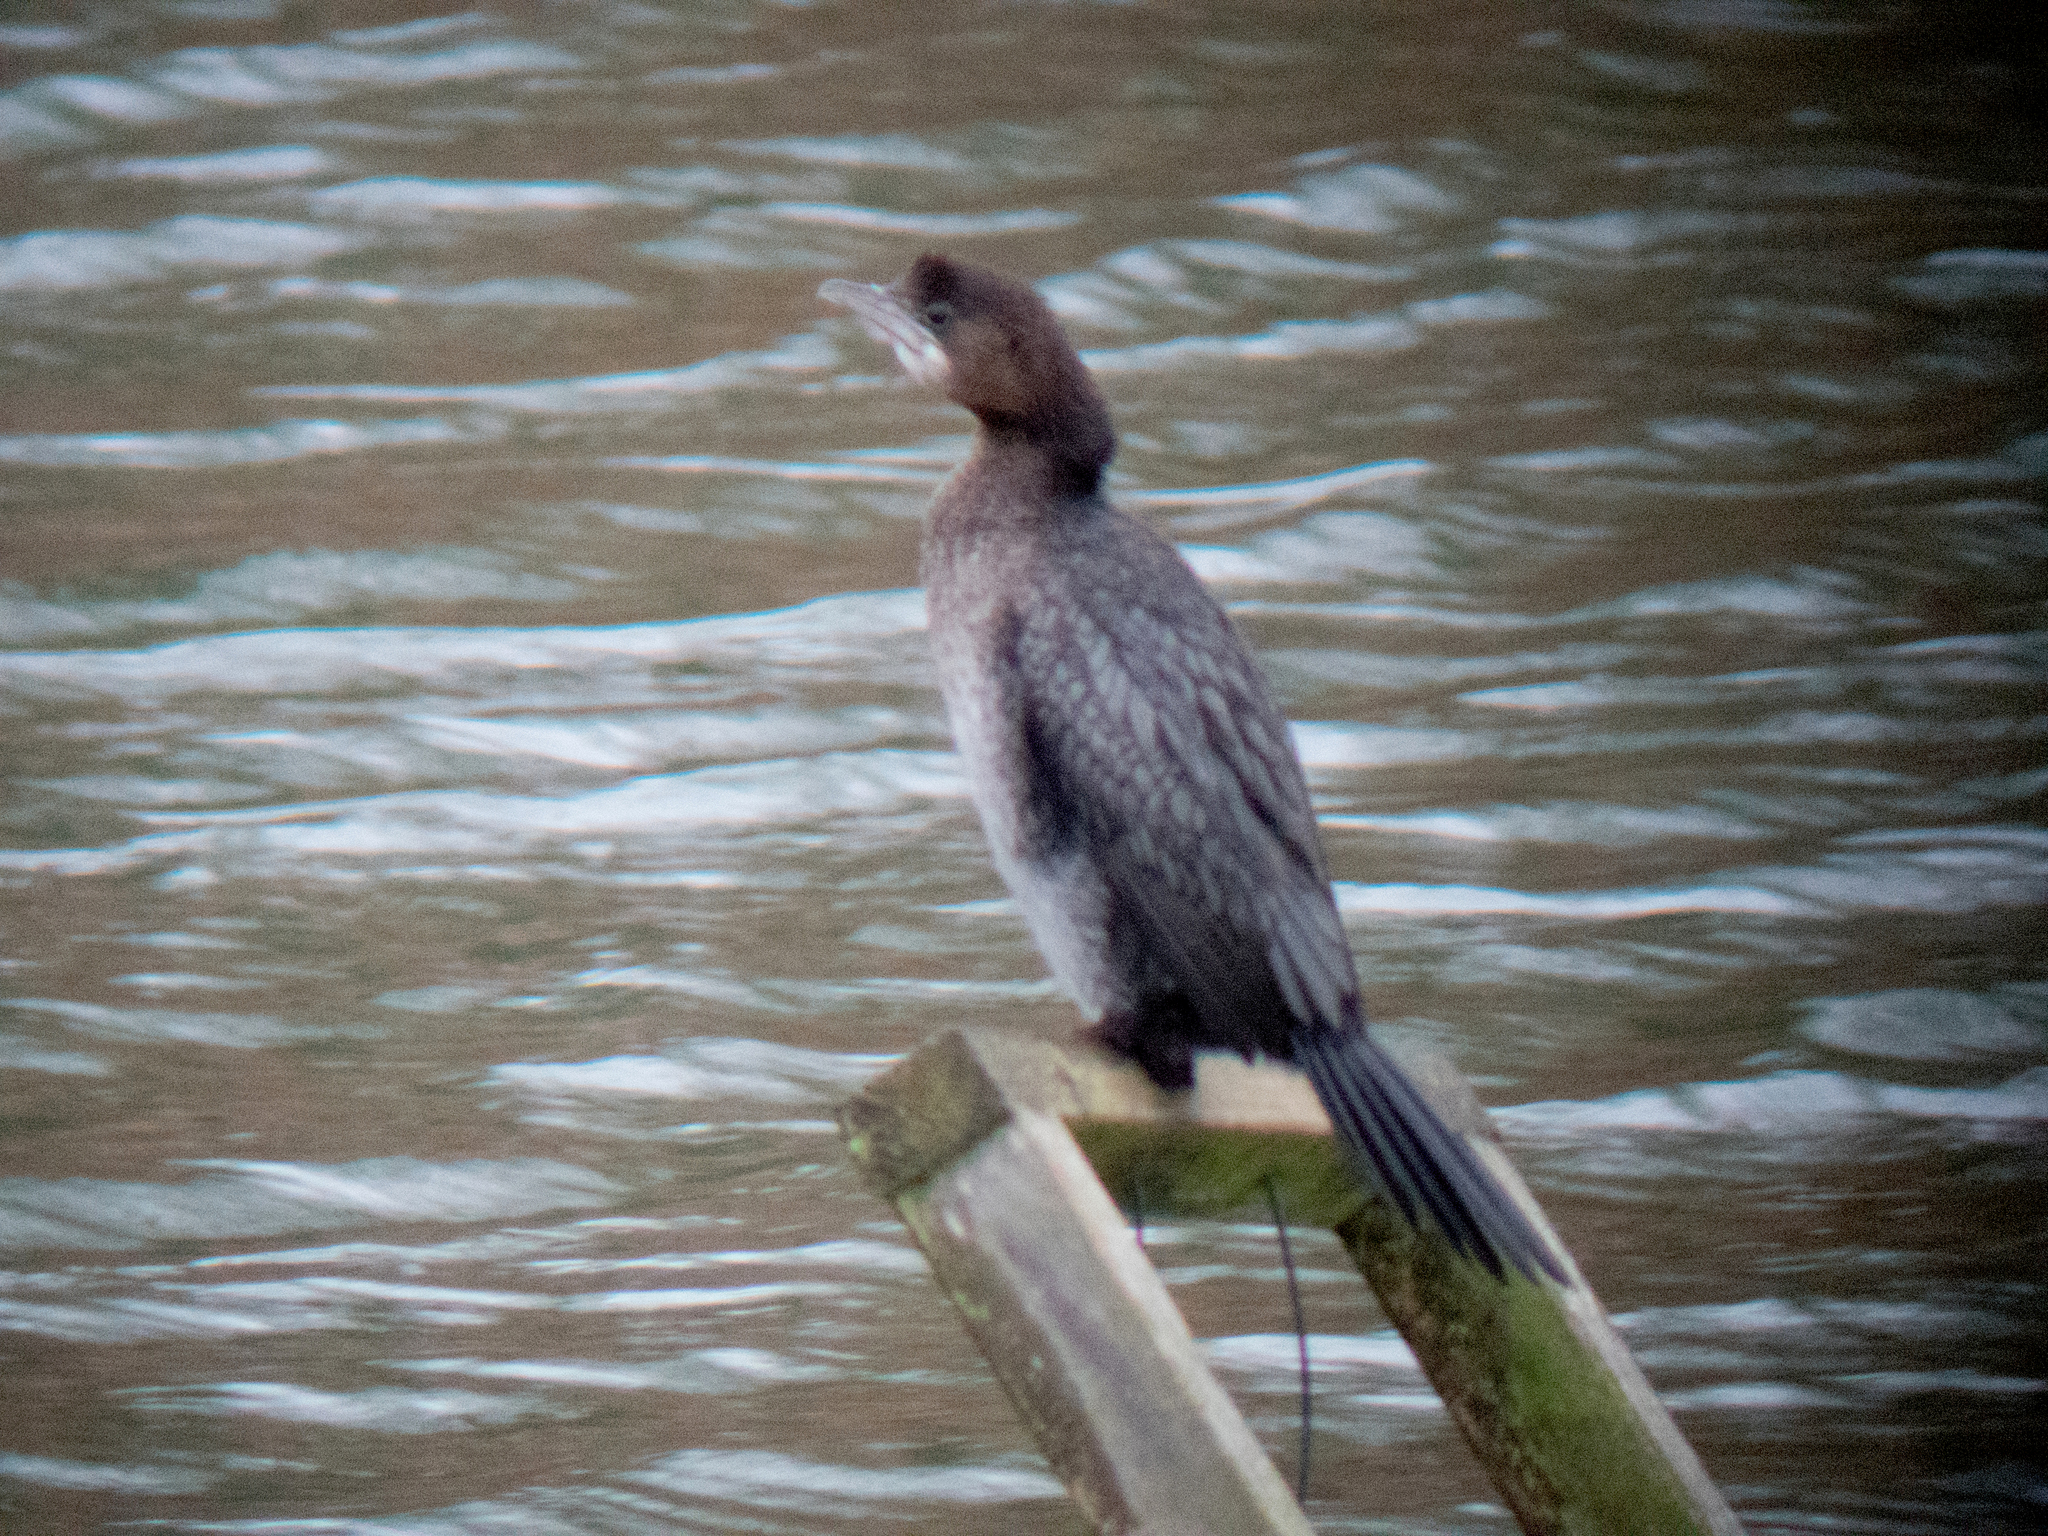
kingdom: Animalia
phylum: Chordata
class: Aves
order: Suliformes
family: Phalacrocoracidae
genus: Microcarbo
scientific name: Microcarbo pygmaeus
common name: Pygmy cormorant
